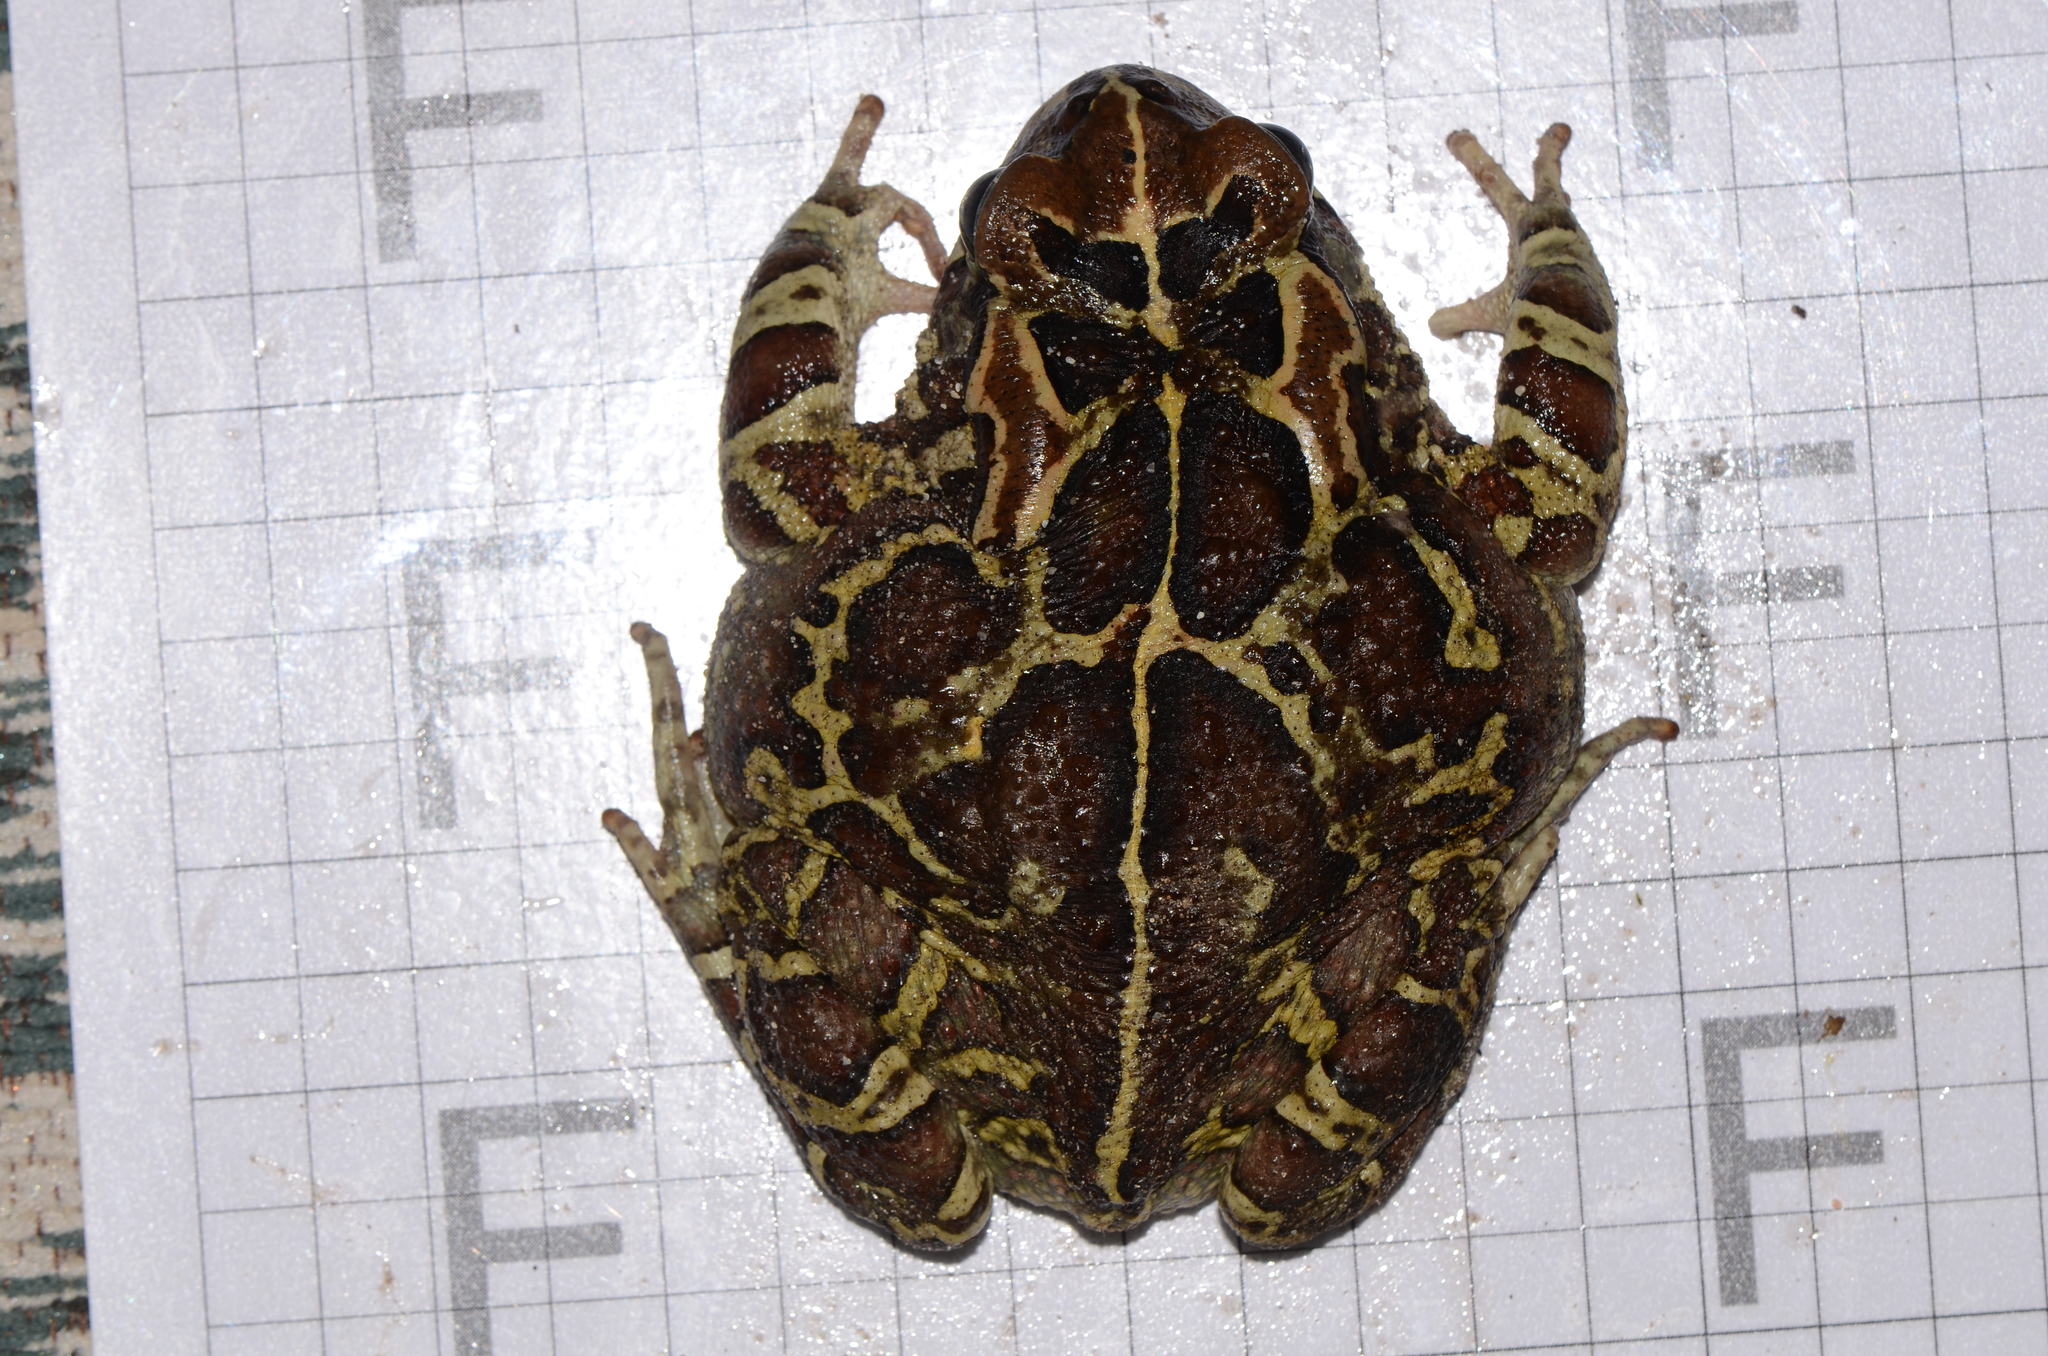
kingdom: Animalia
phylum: Chordata
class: Amphibia
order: Anura
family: Bufonidae
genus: Sclerophrys
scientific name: Sclerophrys pantherina
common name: Panther toad
